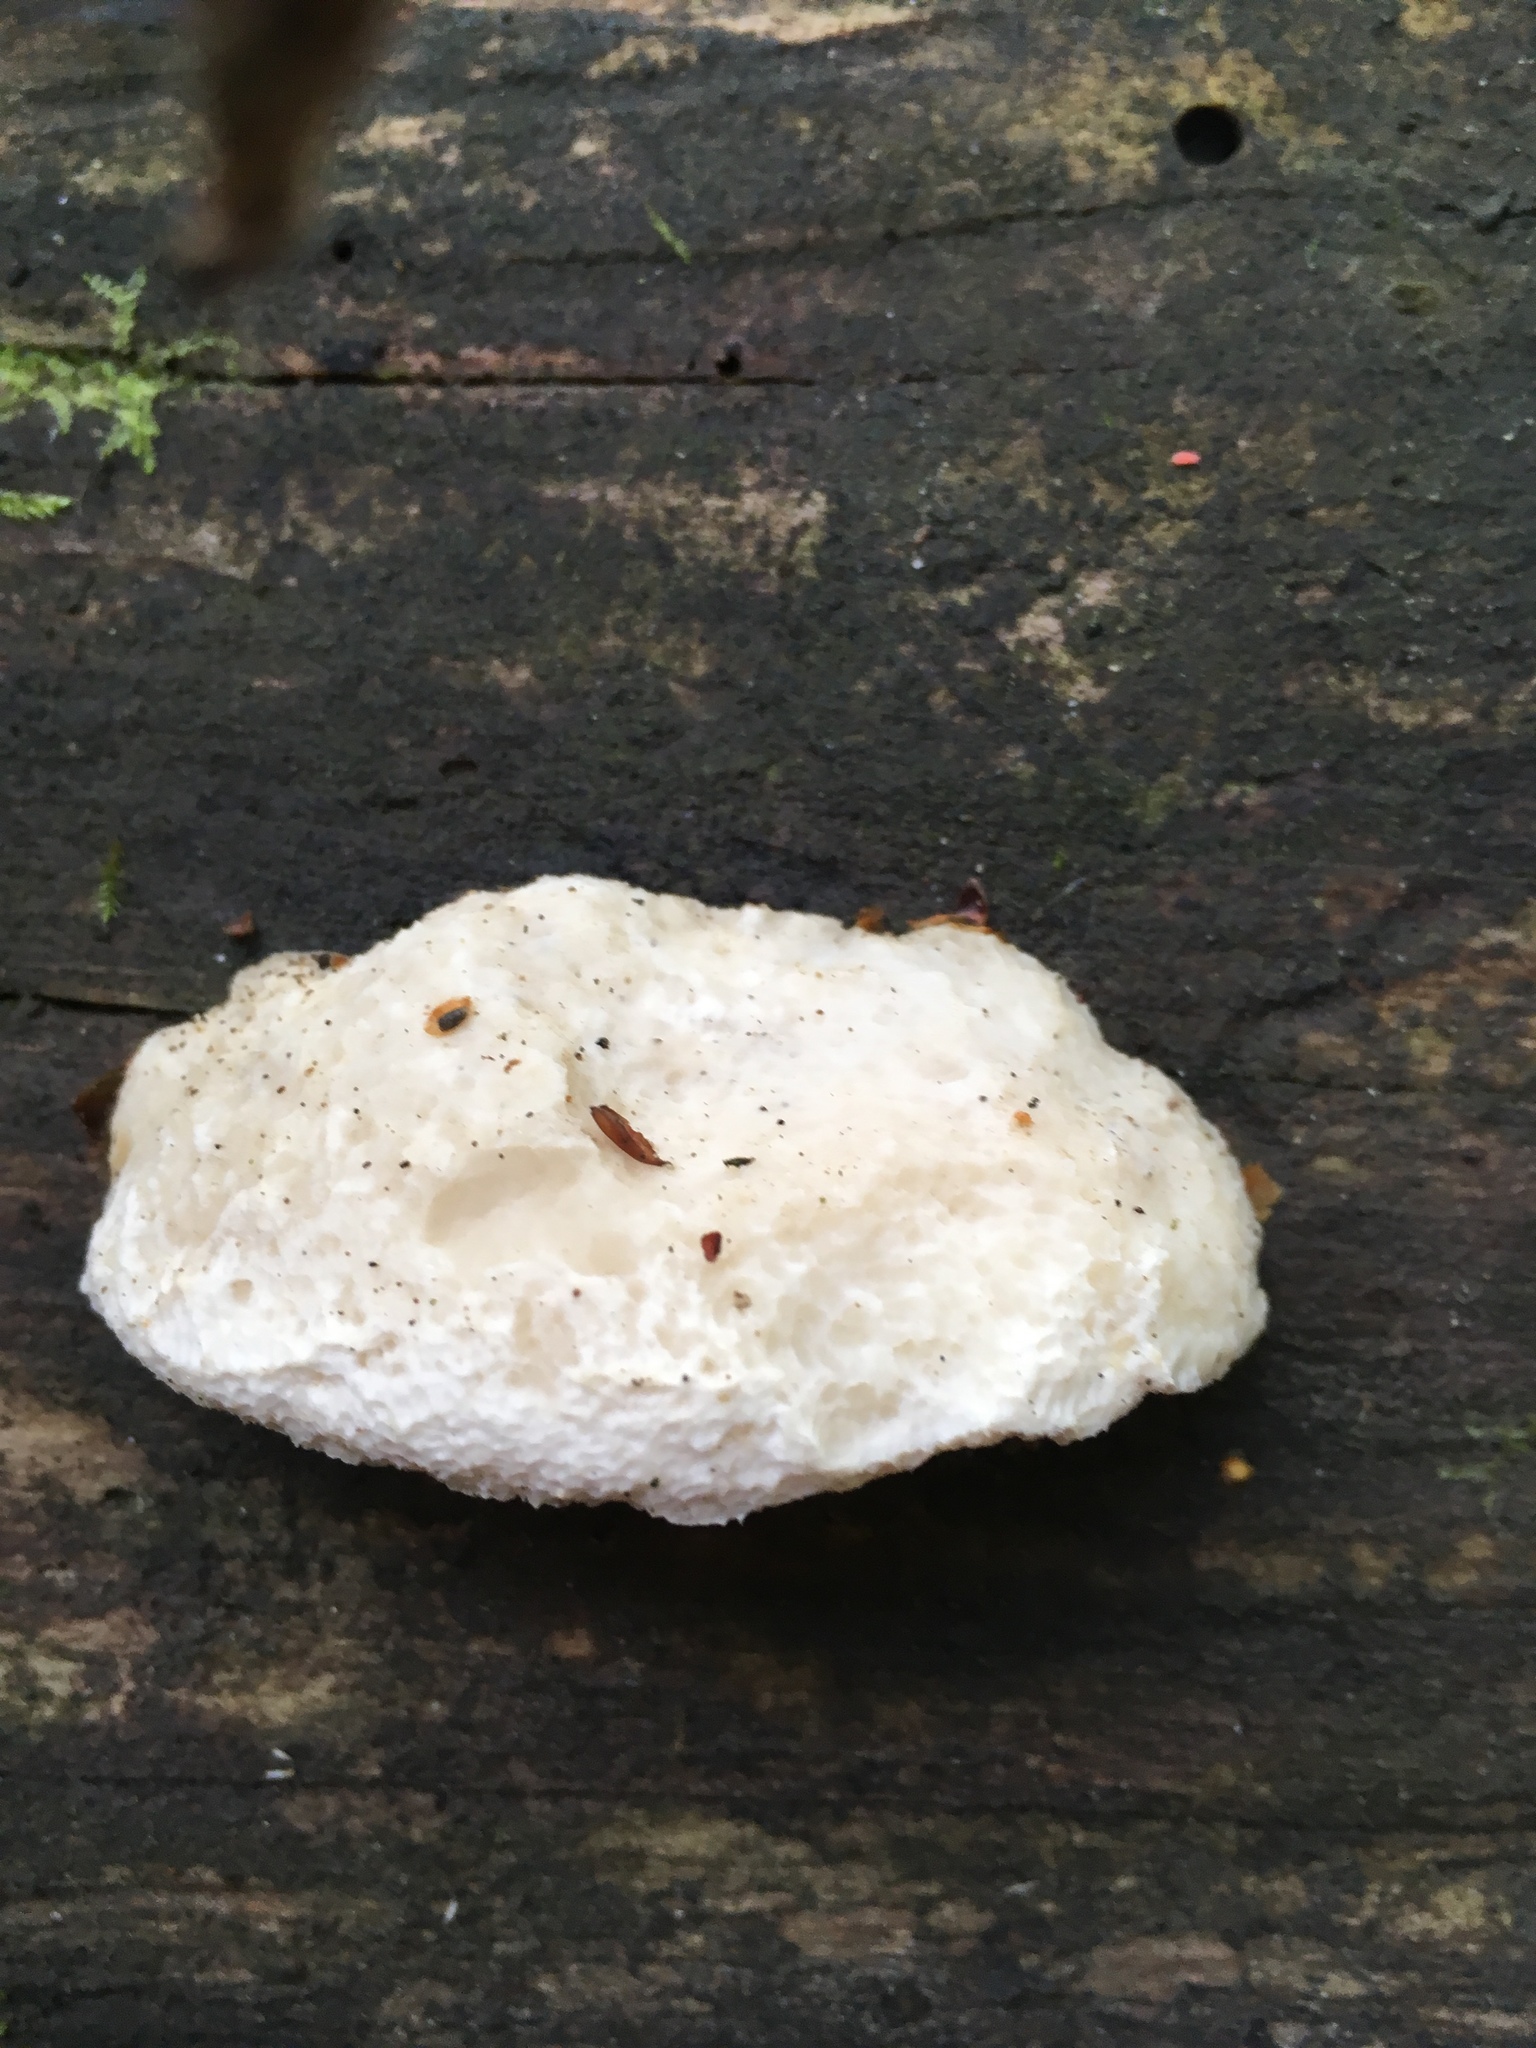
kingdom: Fungi
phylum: Basidiomycota
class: Agaricomycetes
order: Polyporales
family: Dacryobolaceae
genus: Postia
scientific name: Postia tephroleuca
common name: Greyling bracket
